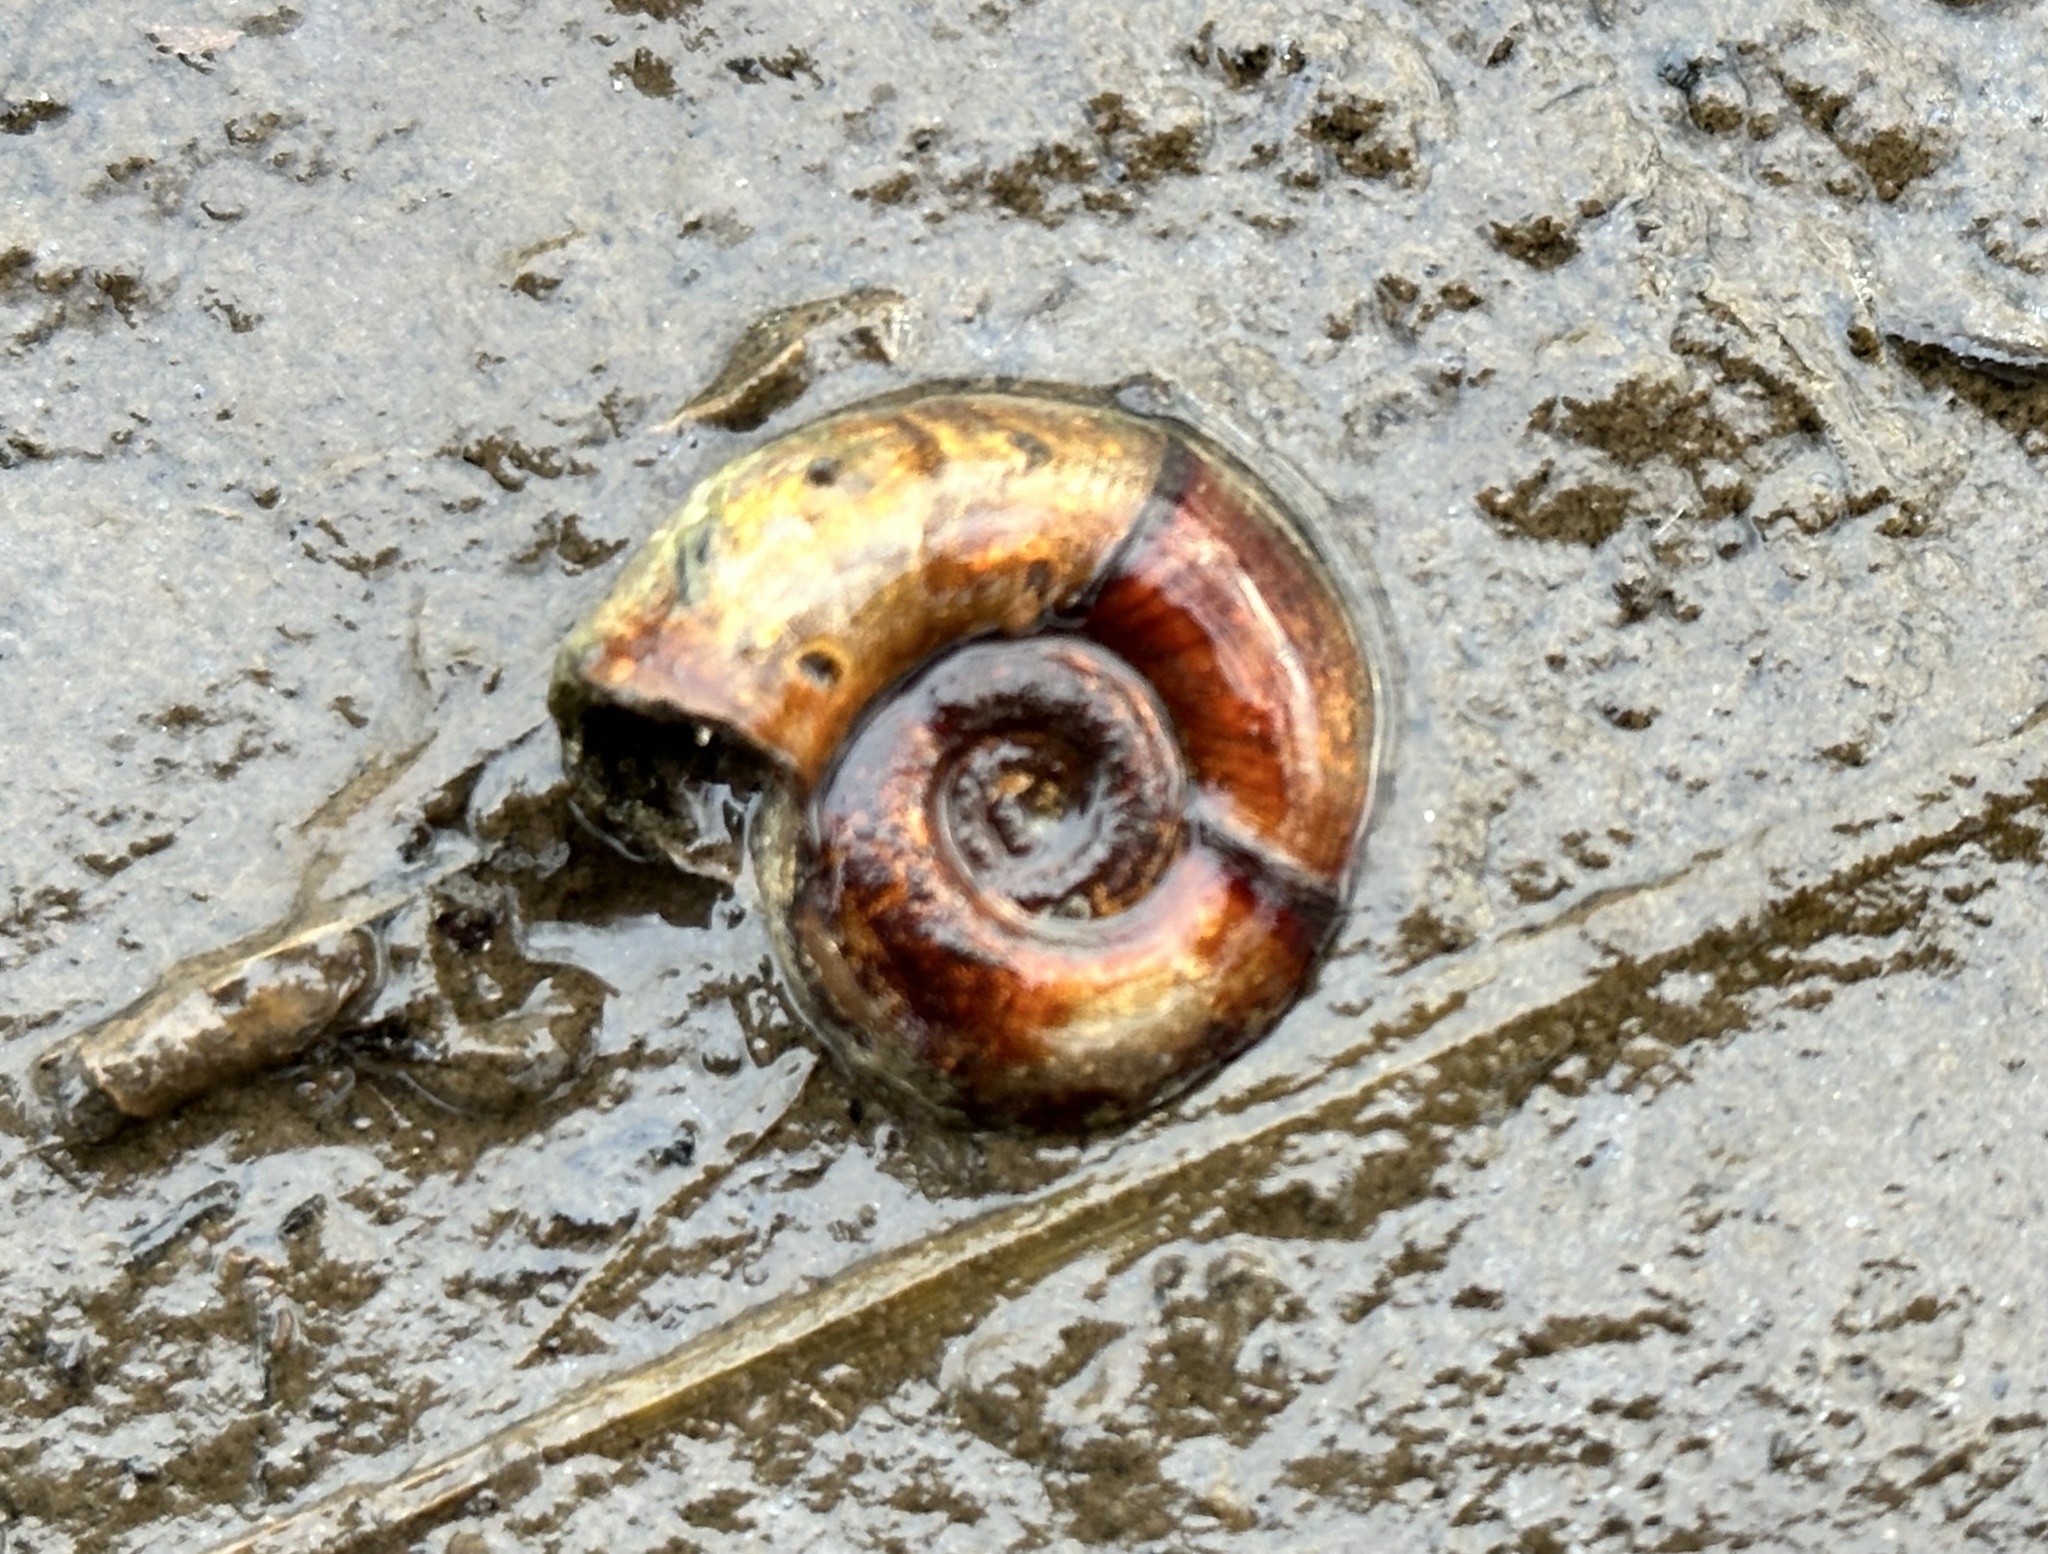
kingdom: Animalia
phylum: Mollusca
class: Gastropoda
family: Planorbidae
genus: Planorbarius
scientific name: Planorbarius corneus
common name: Great ramshorn
